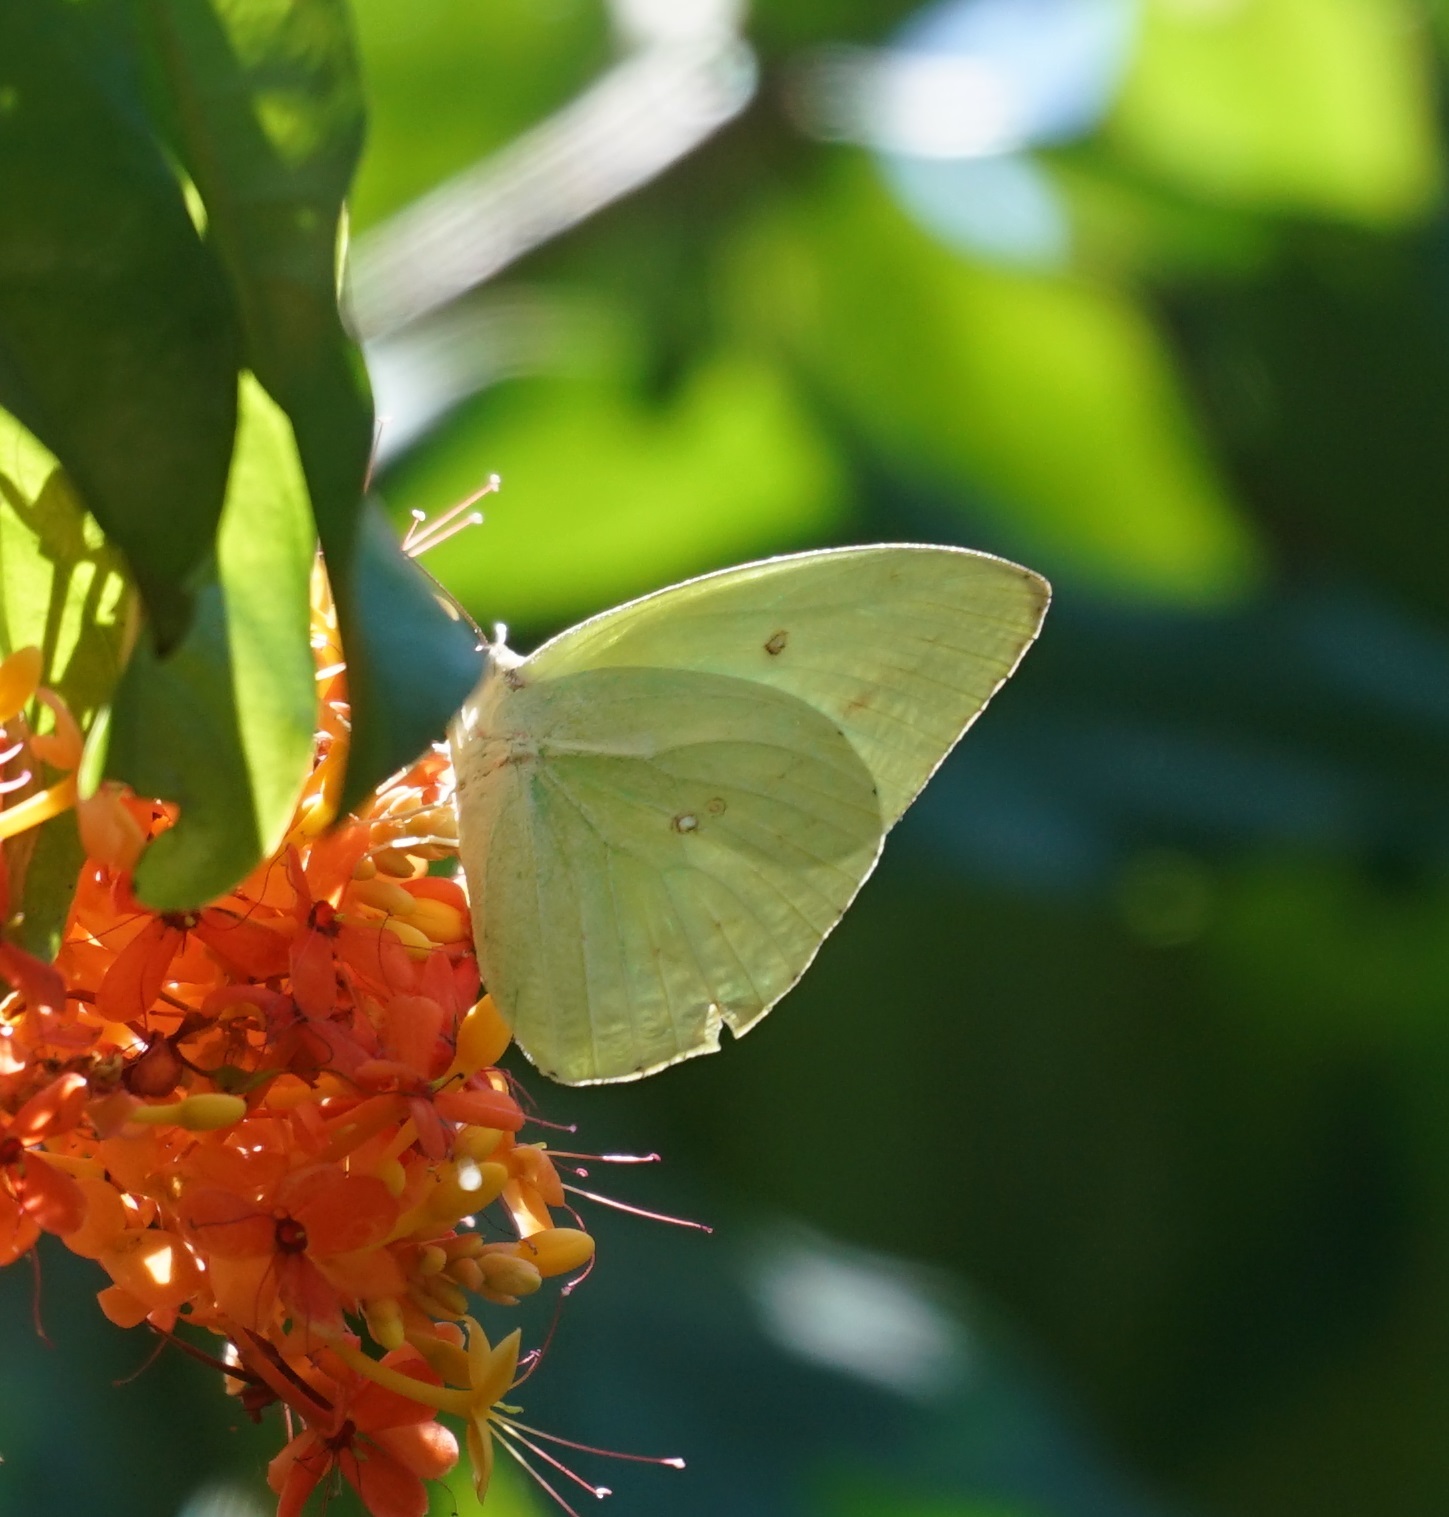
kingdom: Animalia
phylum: Arthropoda
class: Insecta
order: Lepidoptera
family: Pieridae
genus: Catopsilia
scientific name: Catopsilia pomona
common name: Common emigrant
